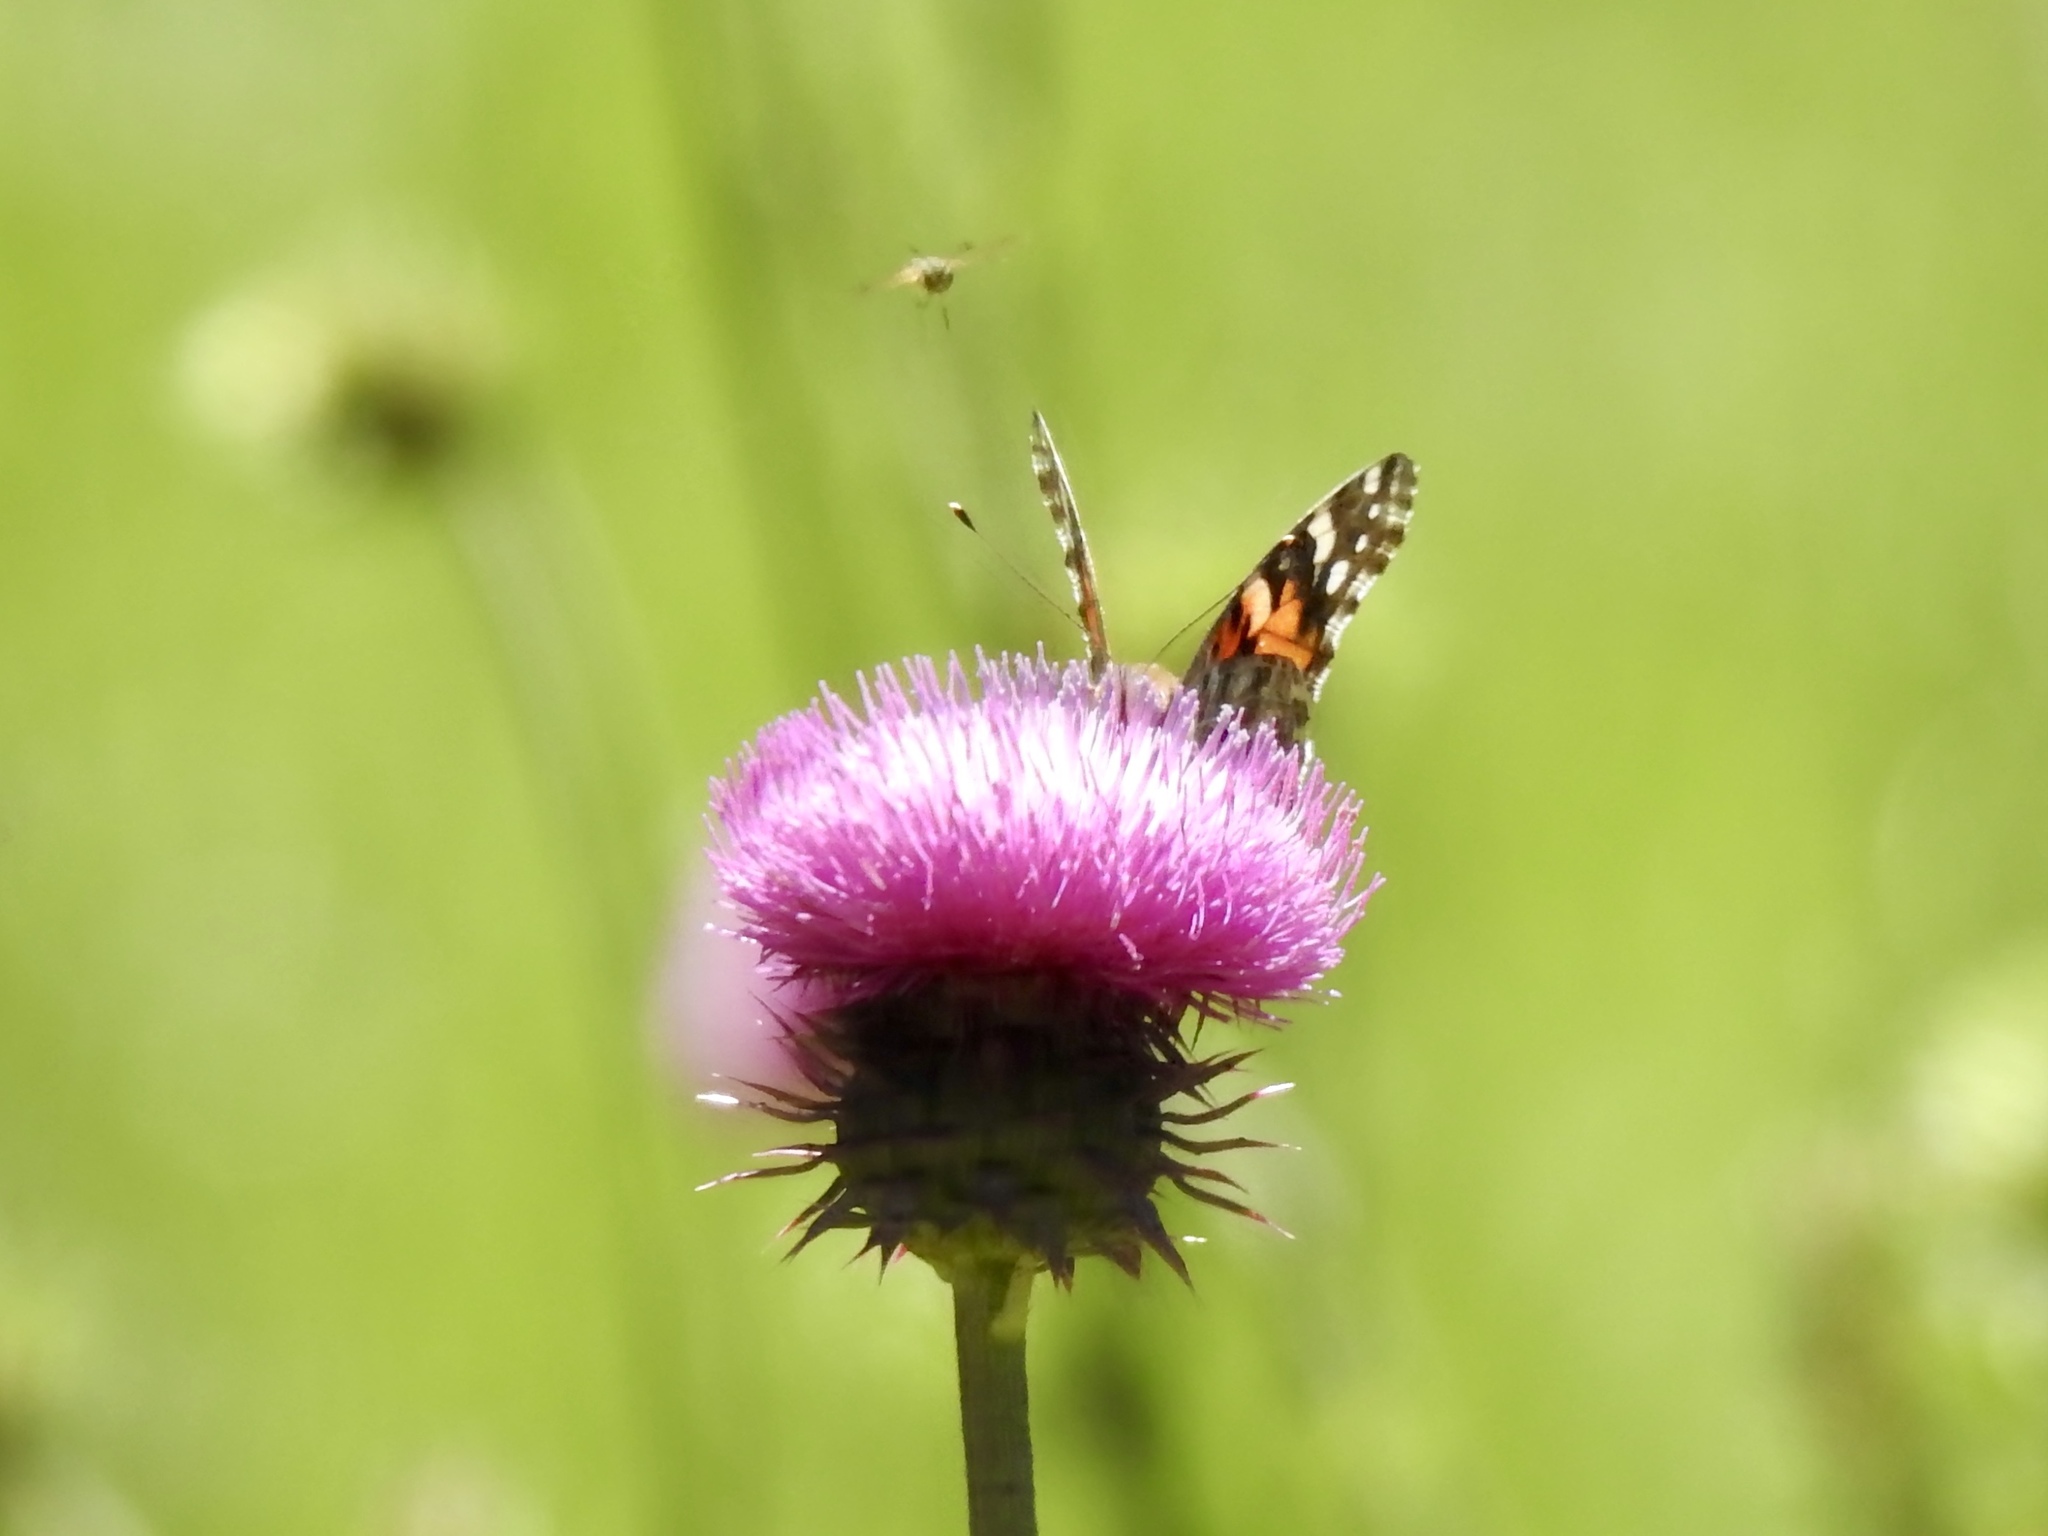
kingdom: Animalia
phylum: Arthropoda
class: Insecta
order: Lepidoptera
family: Nymphalidae
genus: Vanessa
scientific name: Vanessa cardui
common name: Painted lady
